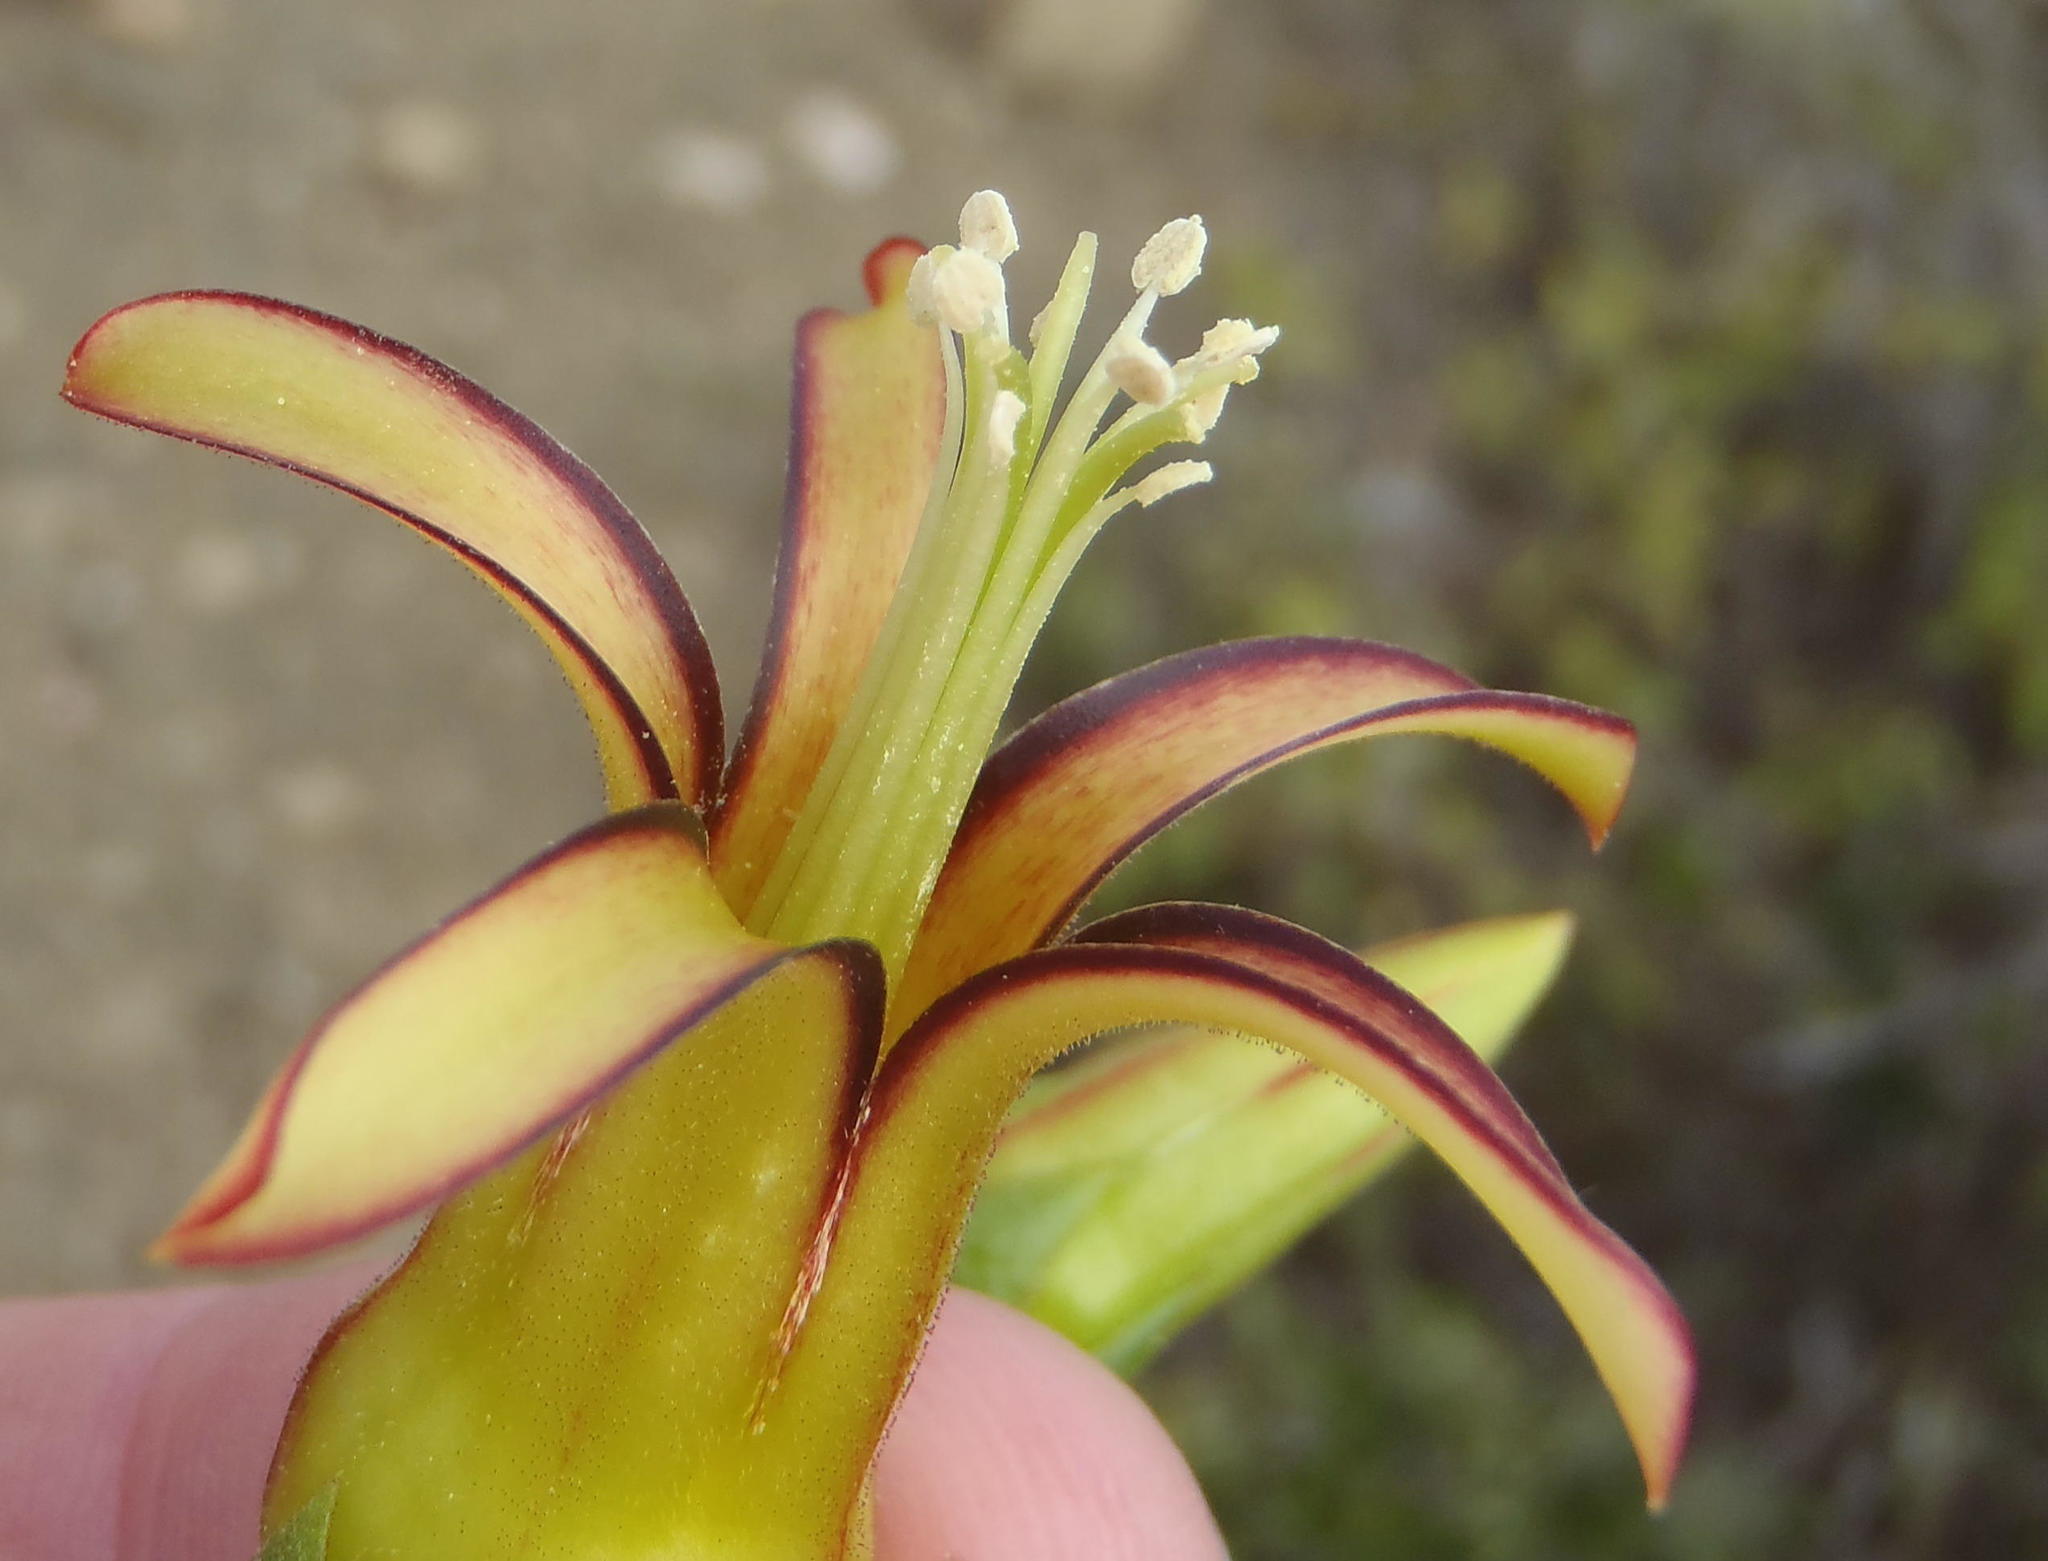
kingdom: Plantae
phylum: Tracheophyta
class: Magnoliopsida
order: Saxifragales
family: Crassulaceae
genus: Cotyledon
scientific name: Cotyledon velutina
